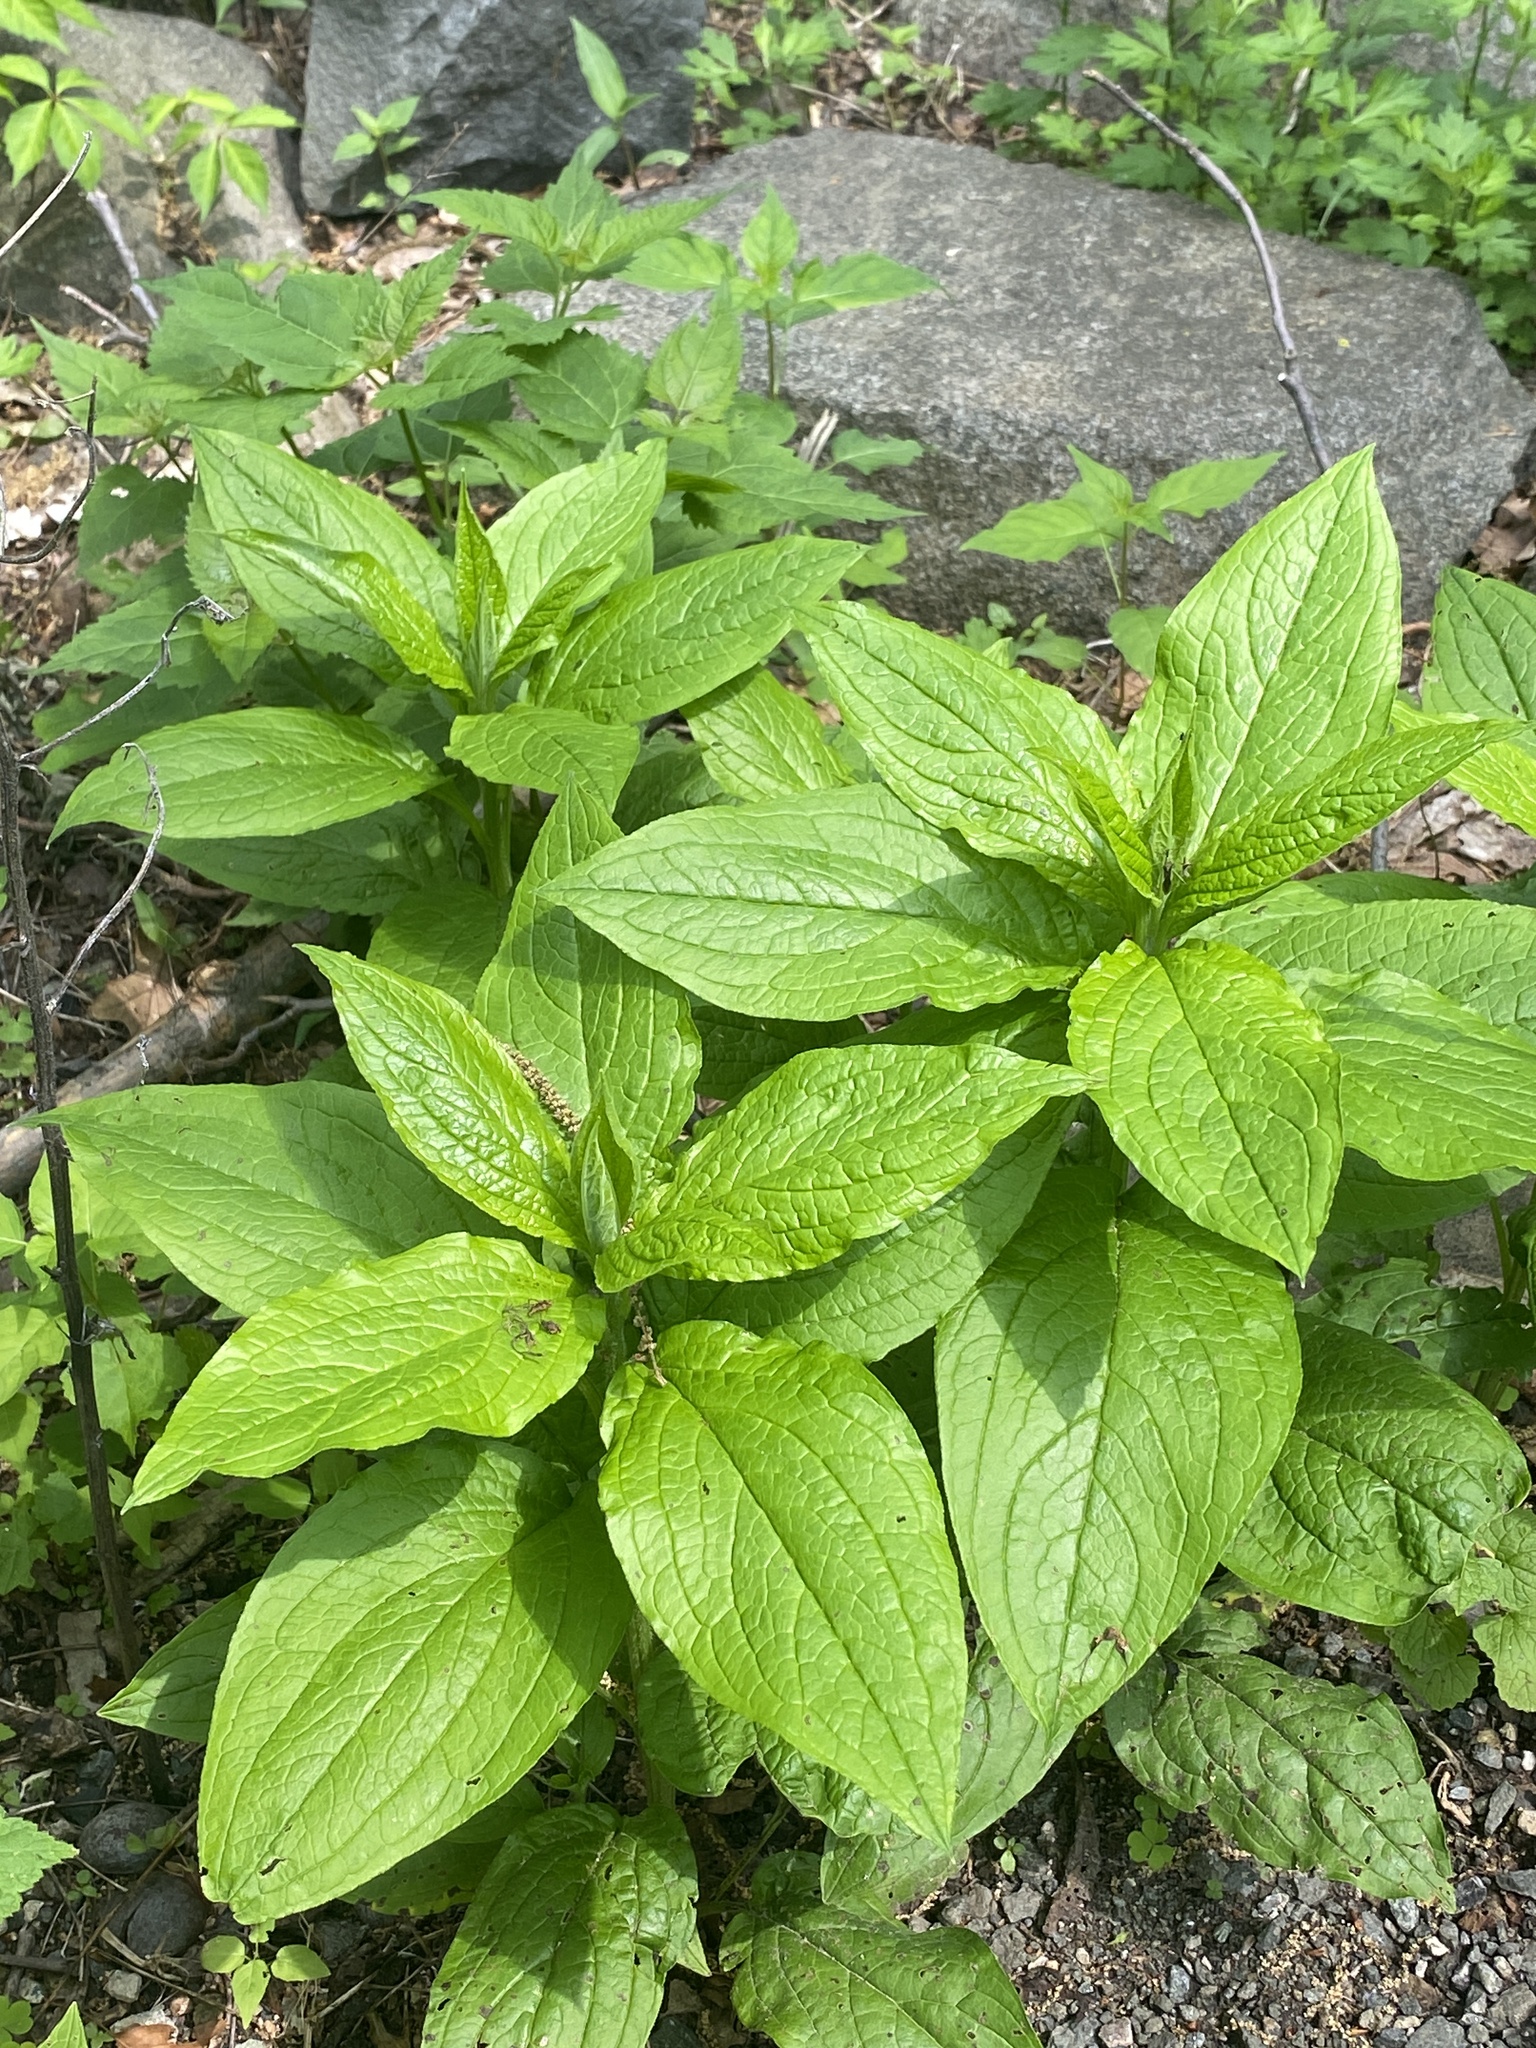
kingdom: Plantae
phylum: Tracheophyta
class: Magnoliopsida
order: Boraginales
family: Boraginaceae
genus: Hackelia
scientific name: Hackelia virginiana
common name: Beggar's-lice
